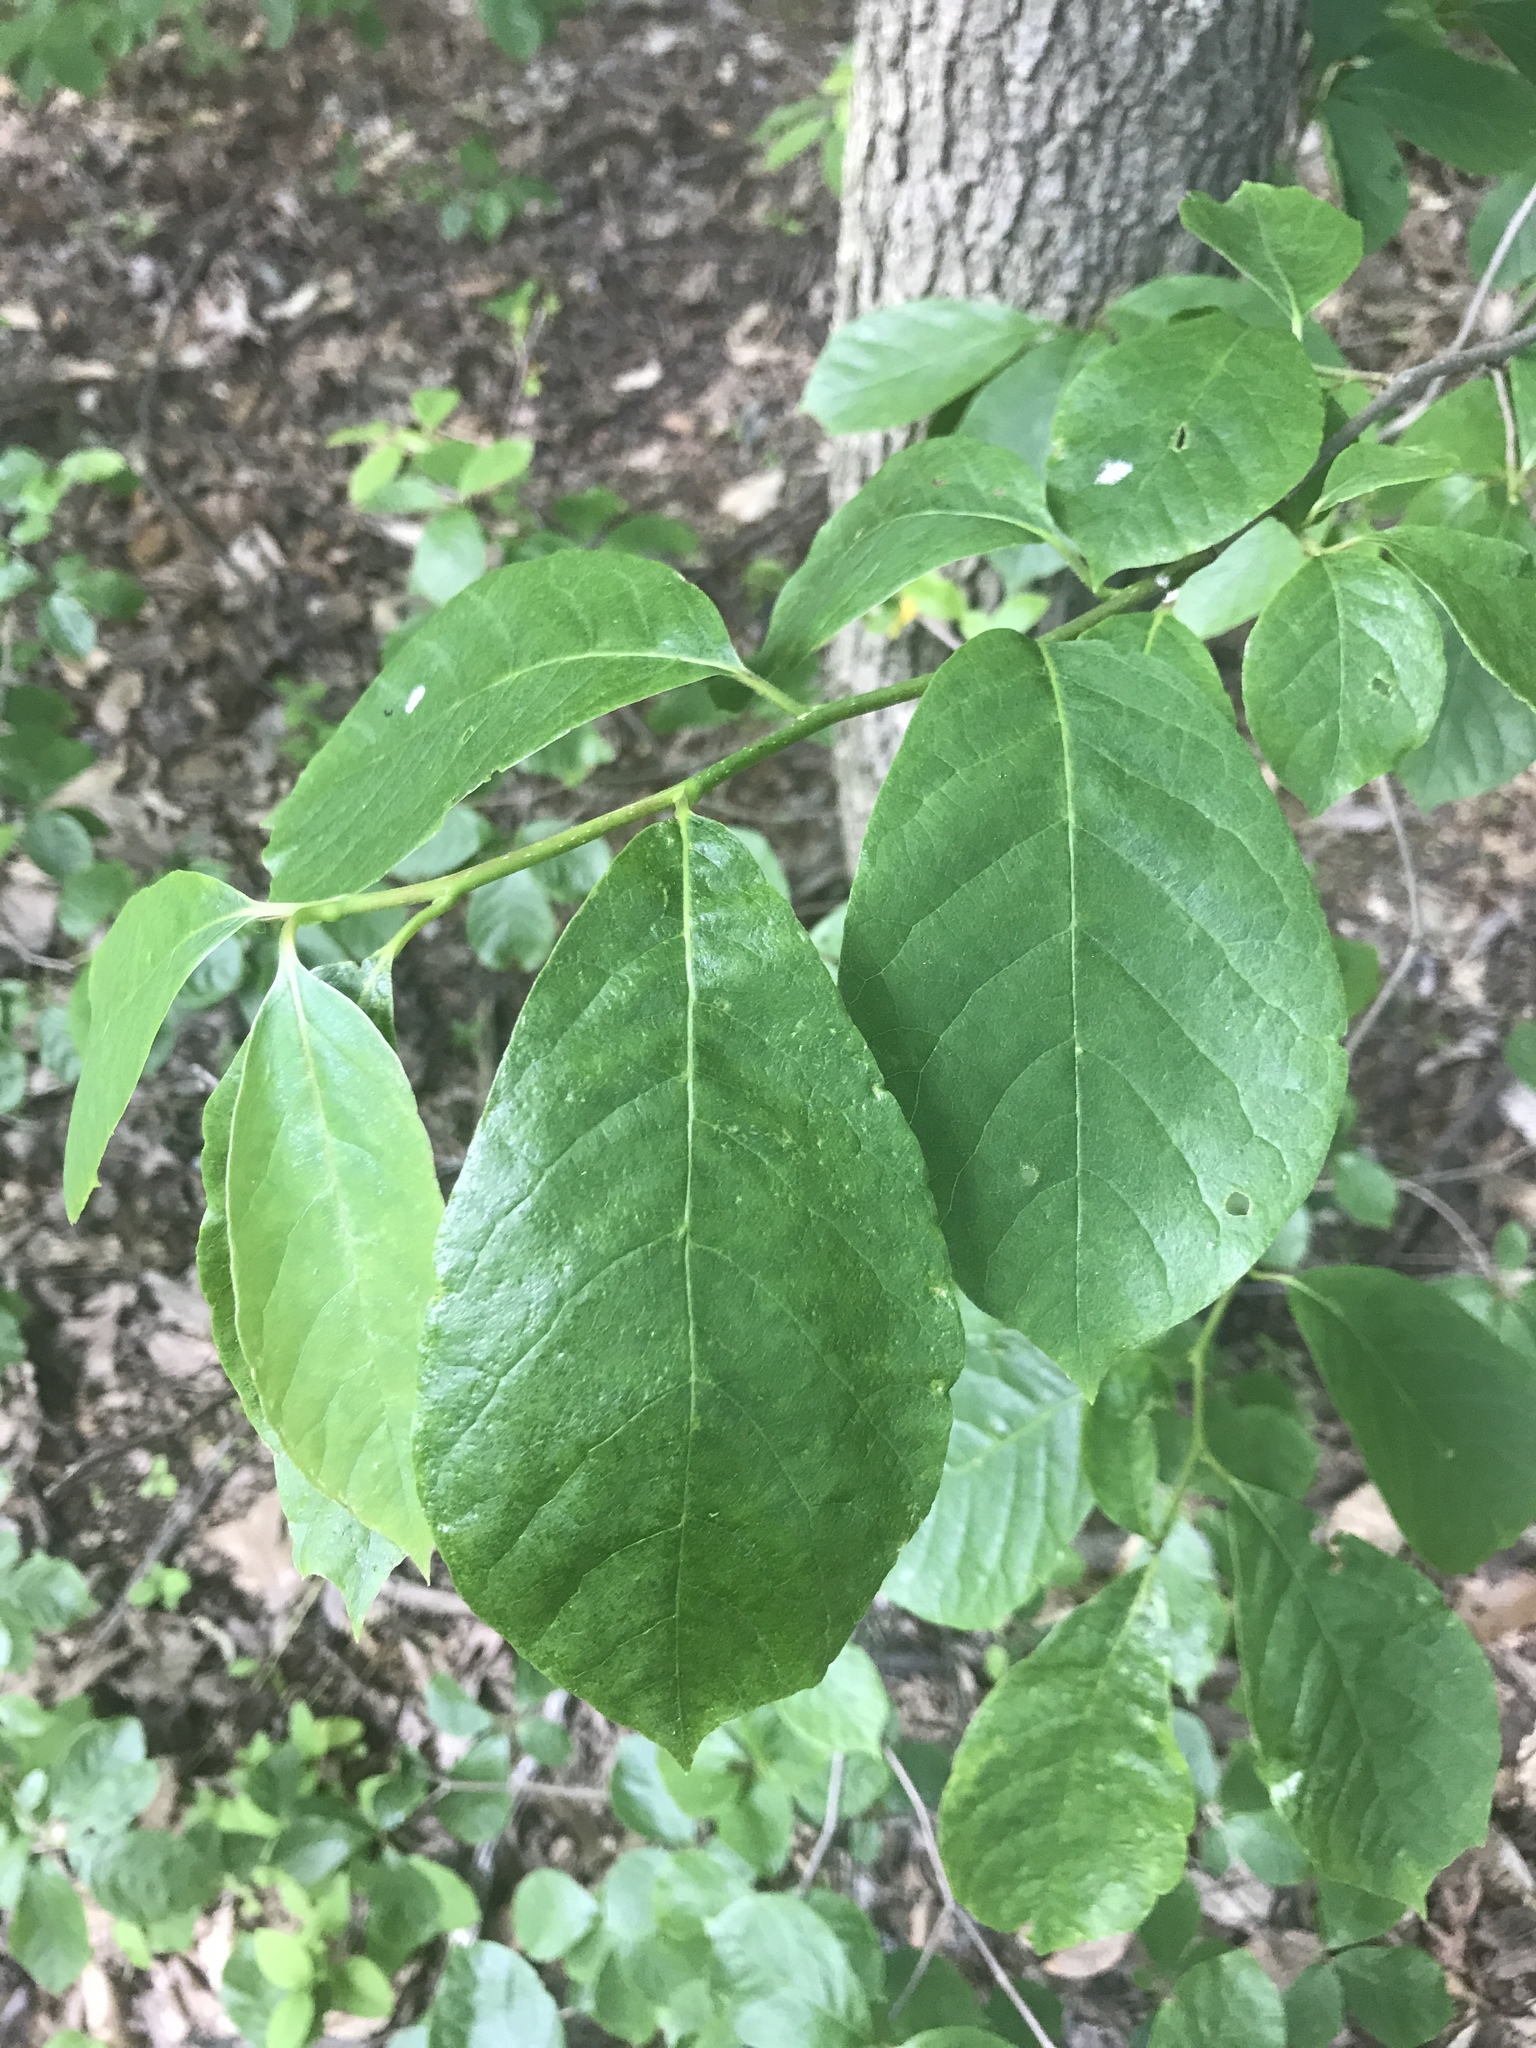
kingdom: Plantae
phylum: Tracheophyta
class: Magnoliopsida
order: Cornales
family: Nyssaceae
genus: Nyssa
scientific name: Nyssa sylvatica
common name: Black tupelo
